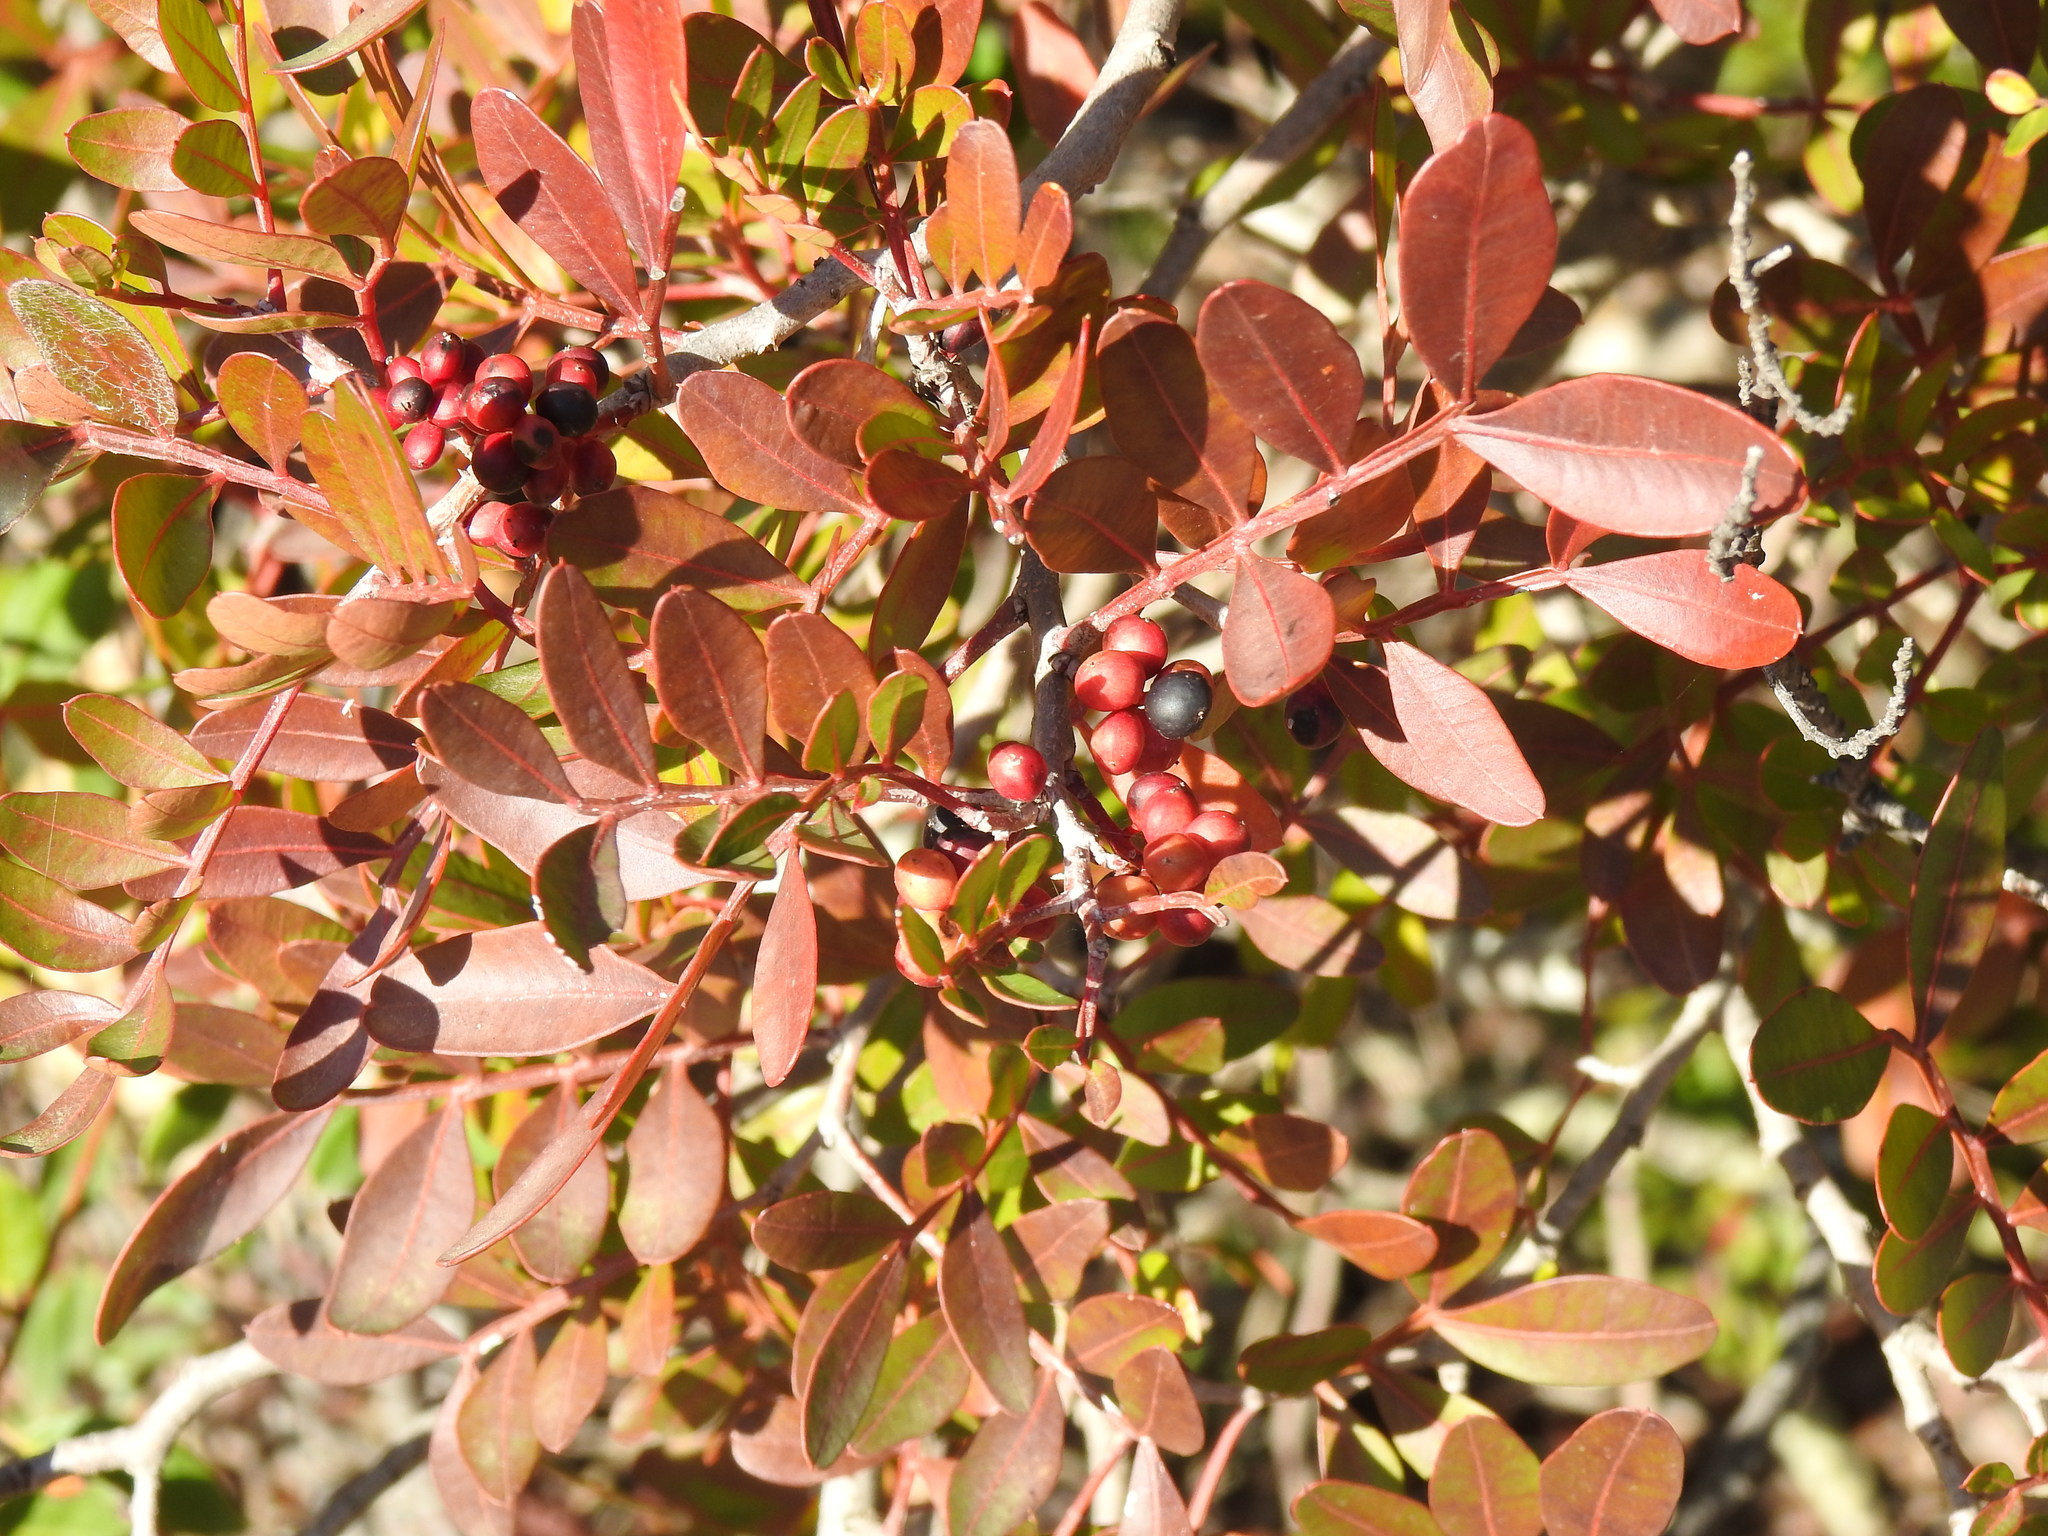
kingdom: Plantae
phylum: Tracheophyta
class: Magnoliopsida
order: Sapindales
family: Anacardiaceae
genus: Pistacia
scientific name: Pistacia lentiscus
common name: Lentisk
